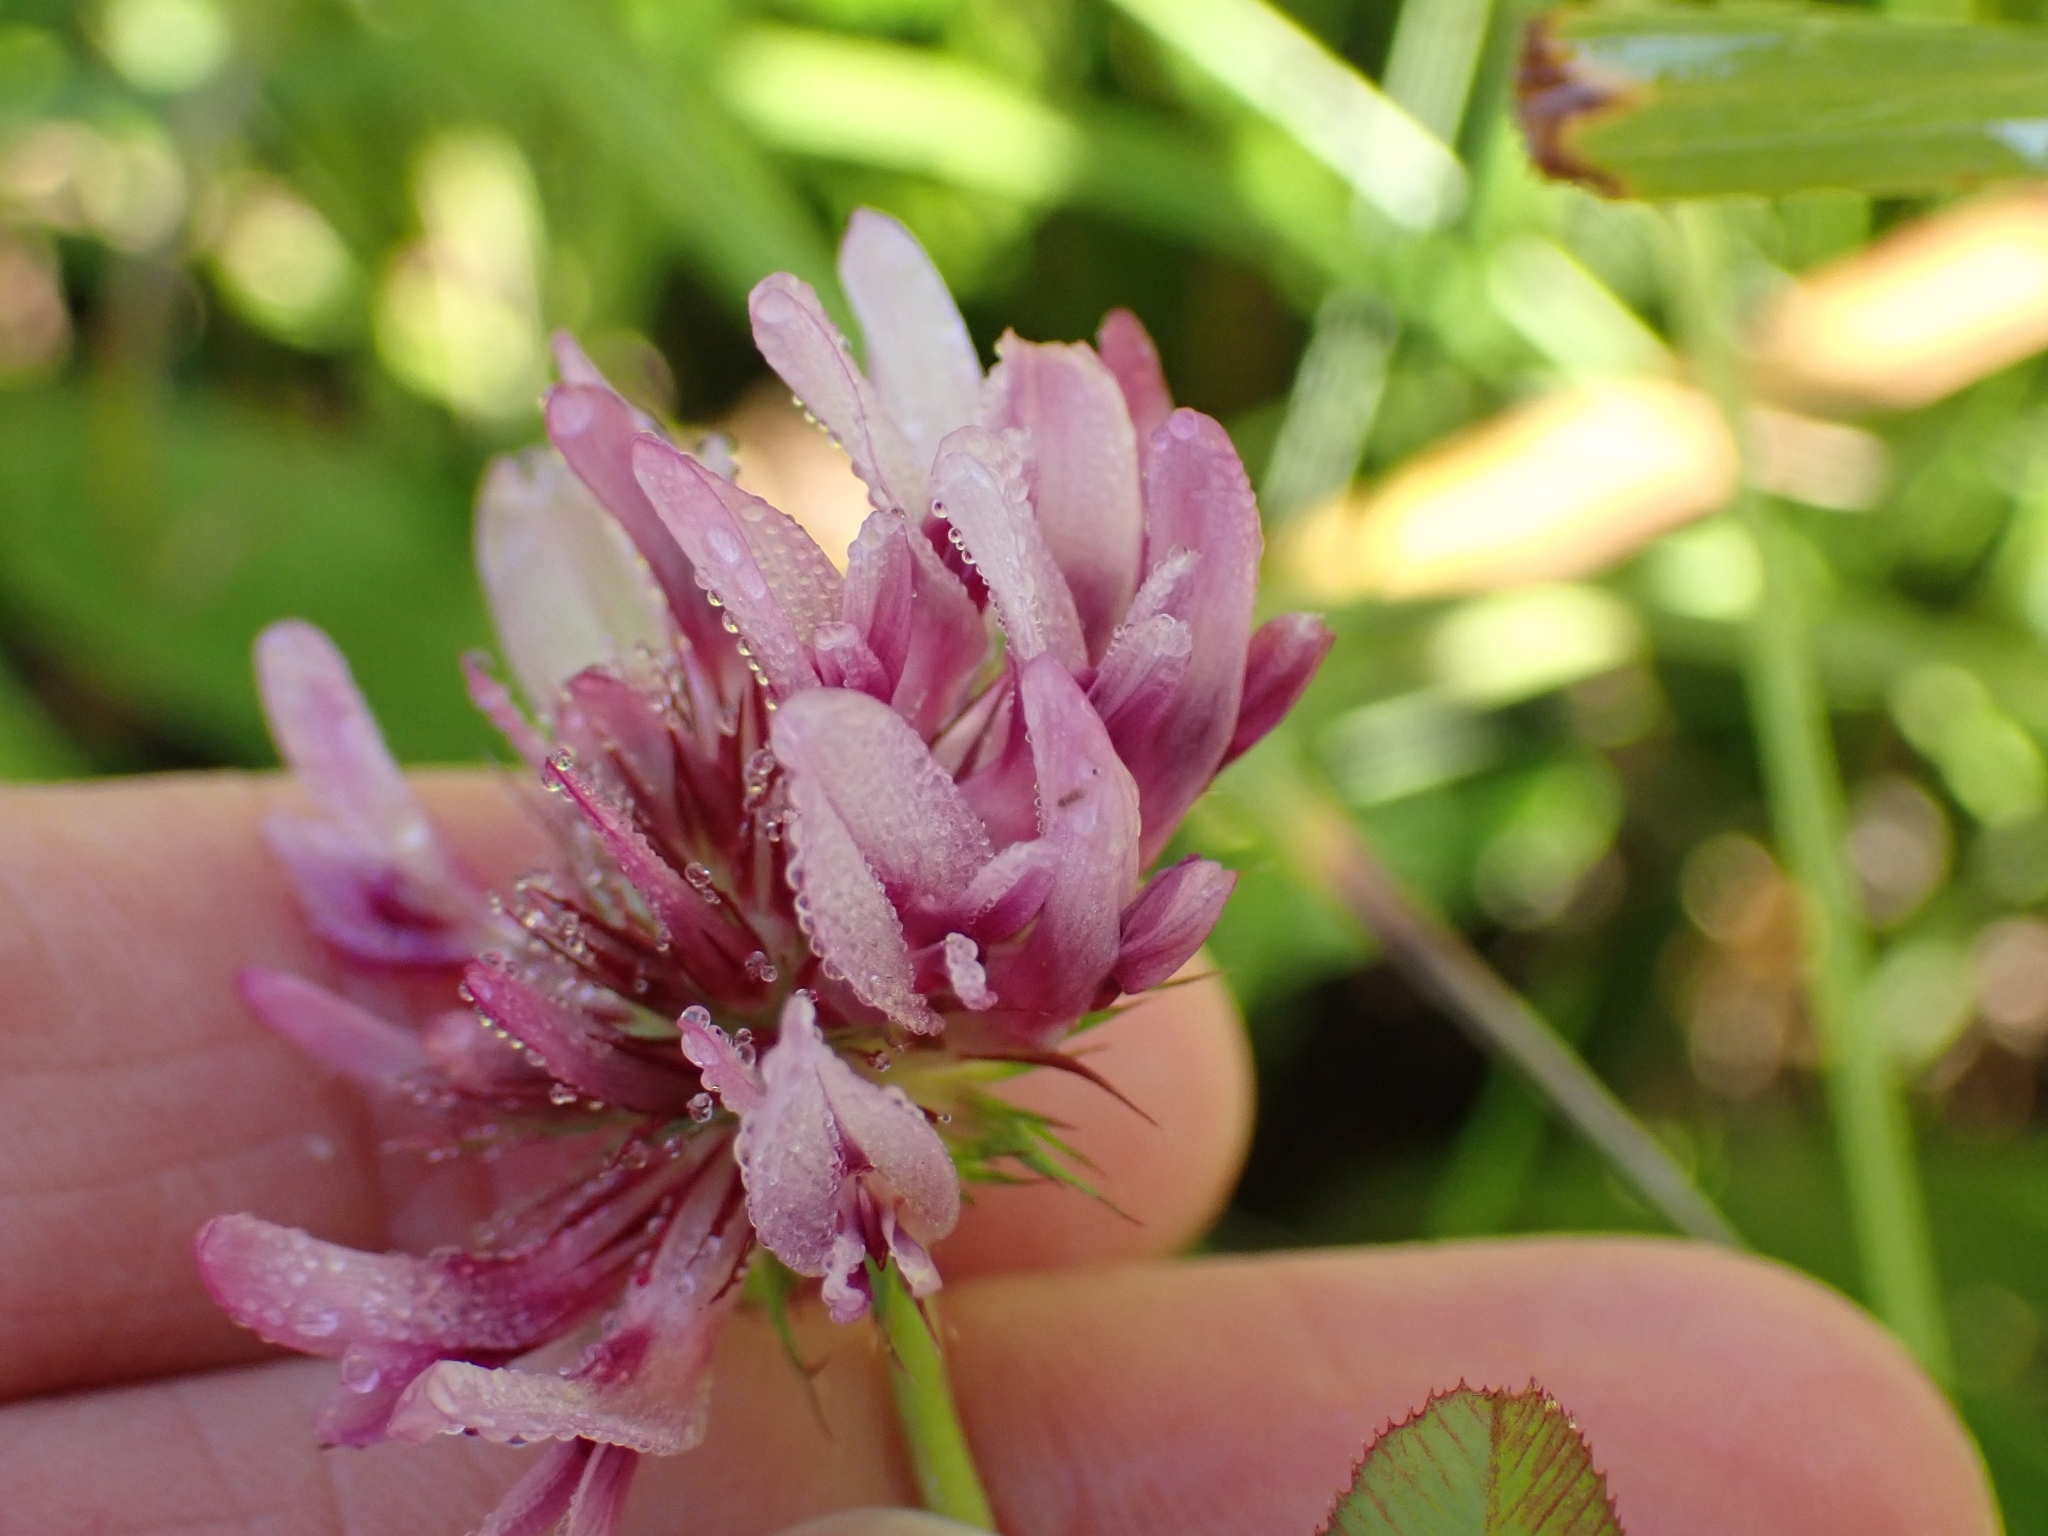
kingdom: Plantae
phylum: Tracheophyta
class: Magnoliopsida
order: Fabales
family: Fabaceae
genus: Trifolium
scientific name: Trifolium wormskioldii
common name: Springbank clover
